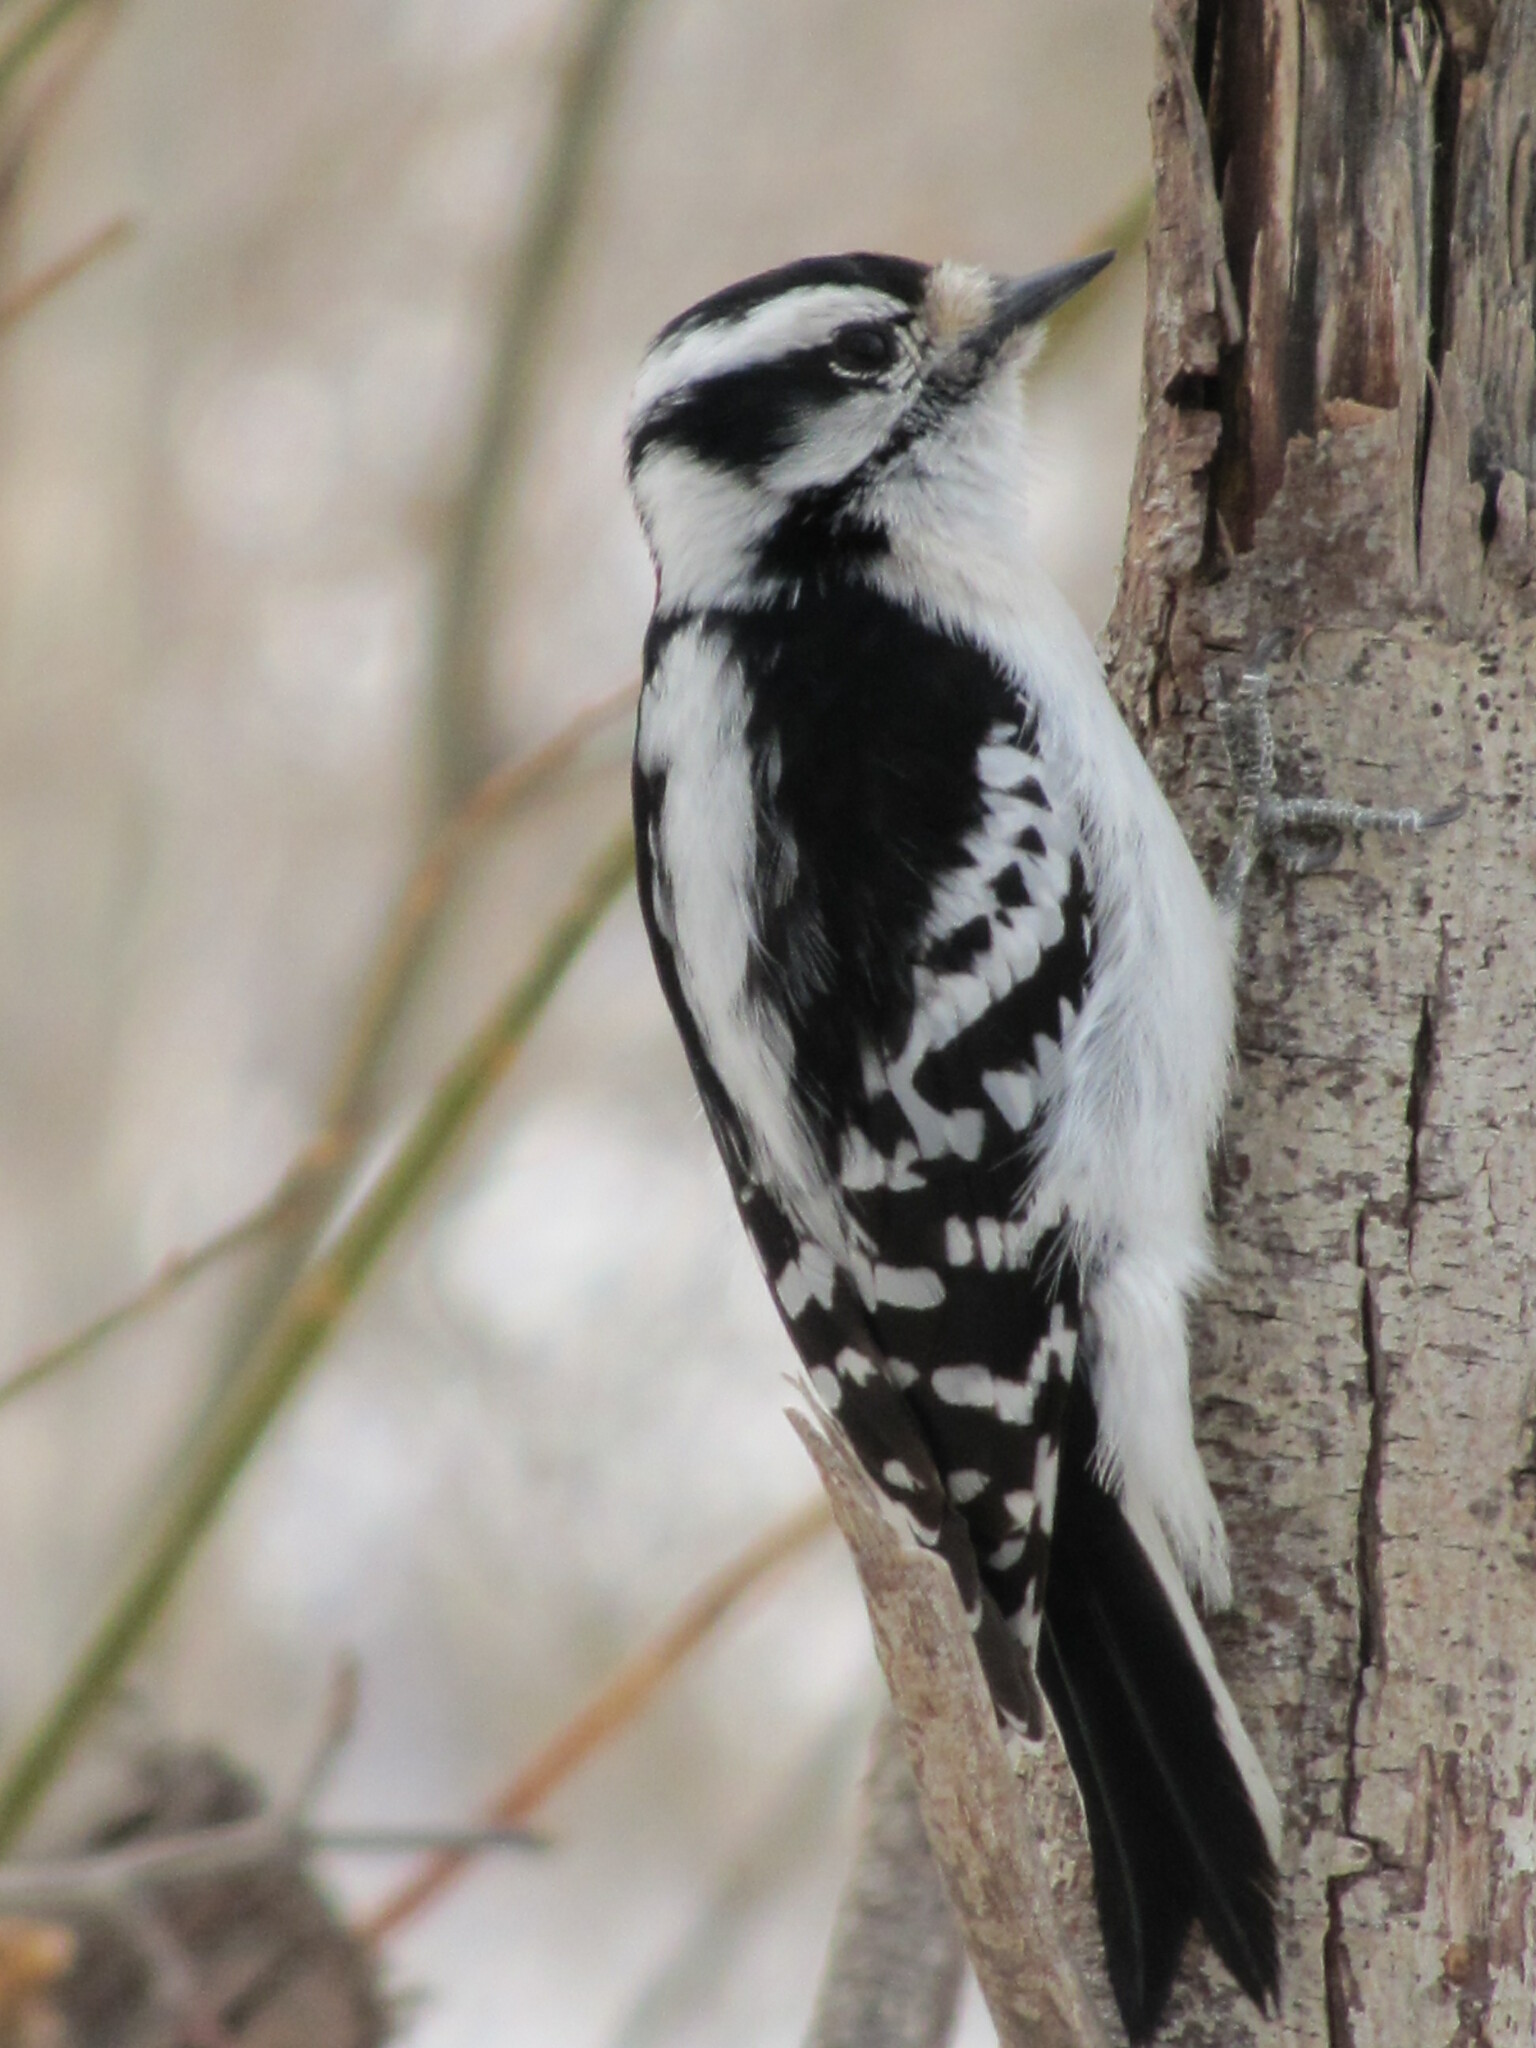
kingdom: Animalia
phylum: Chordata
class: Aves
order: Piciformes
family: Picidae
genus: Dryobates
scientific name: Dryobates pubescens
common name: Downy woodpecker
